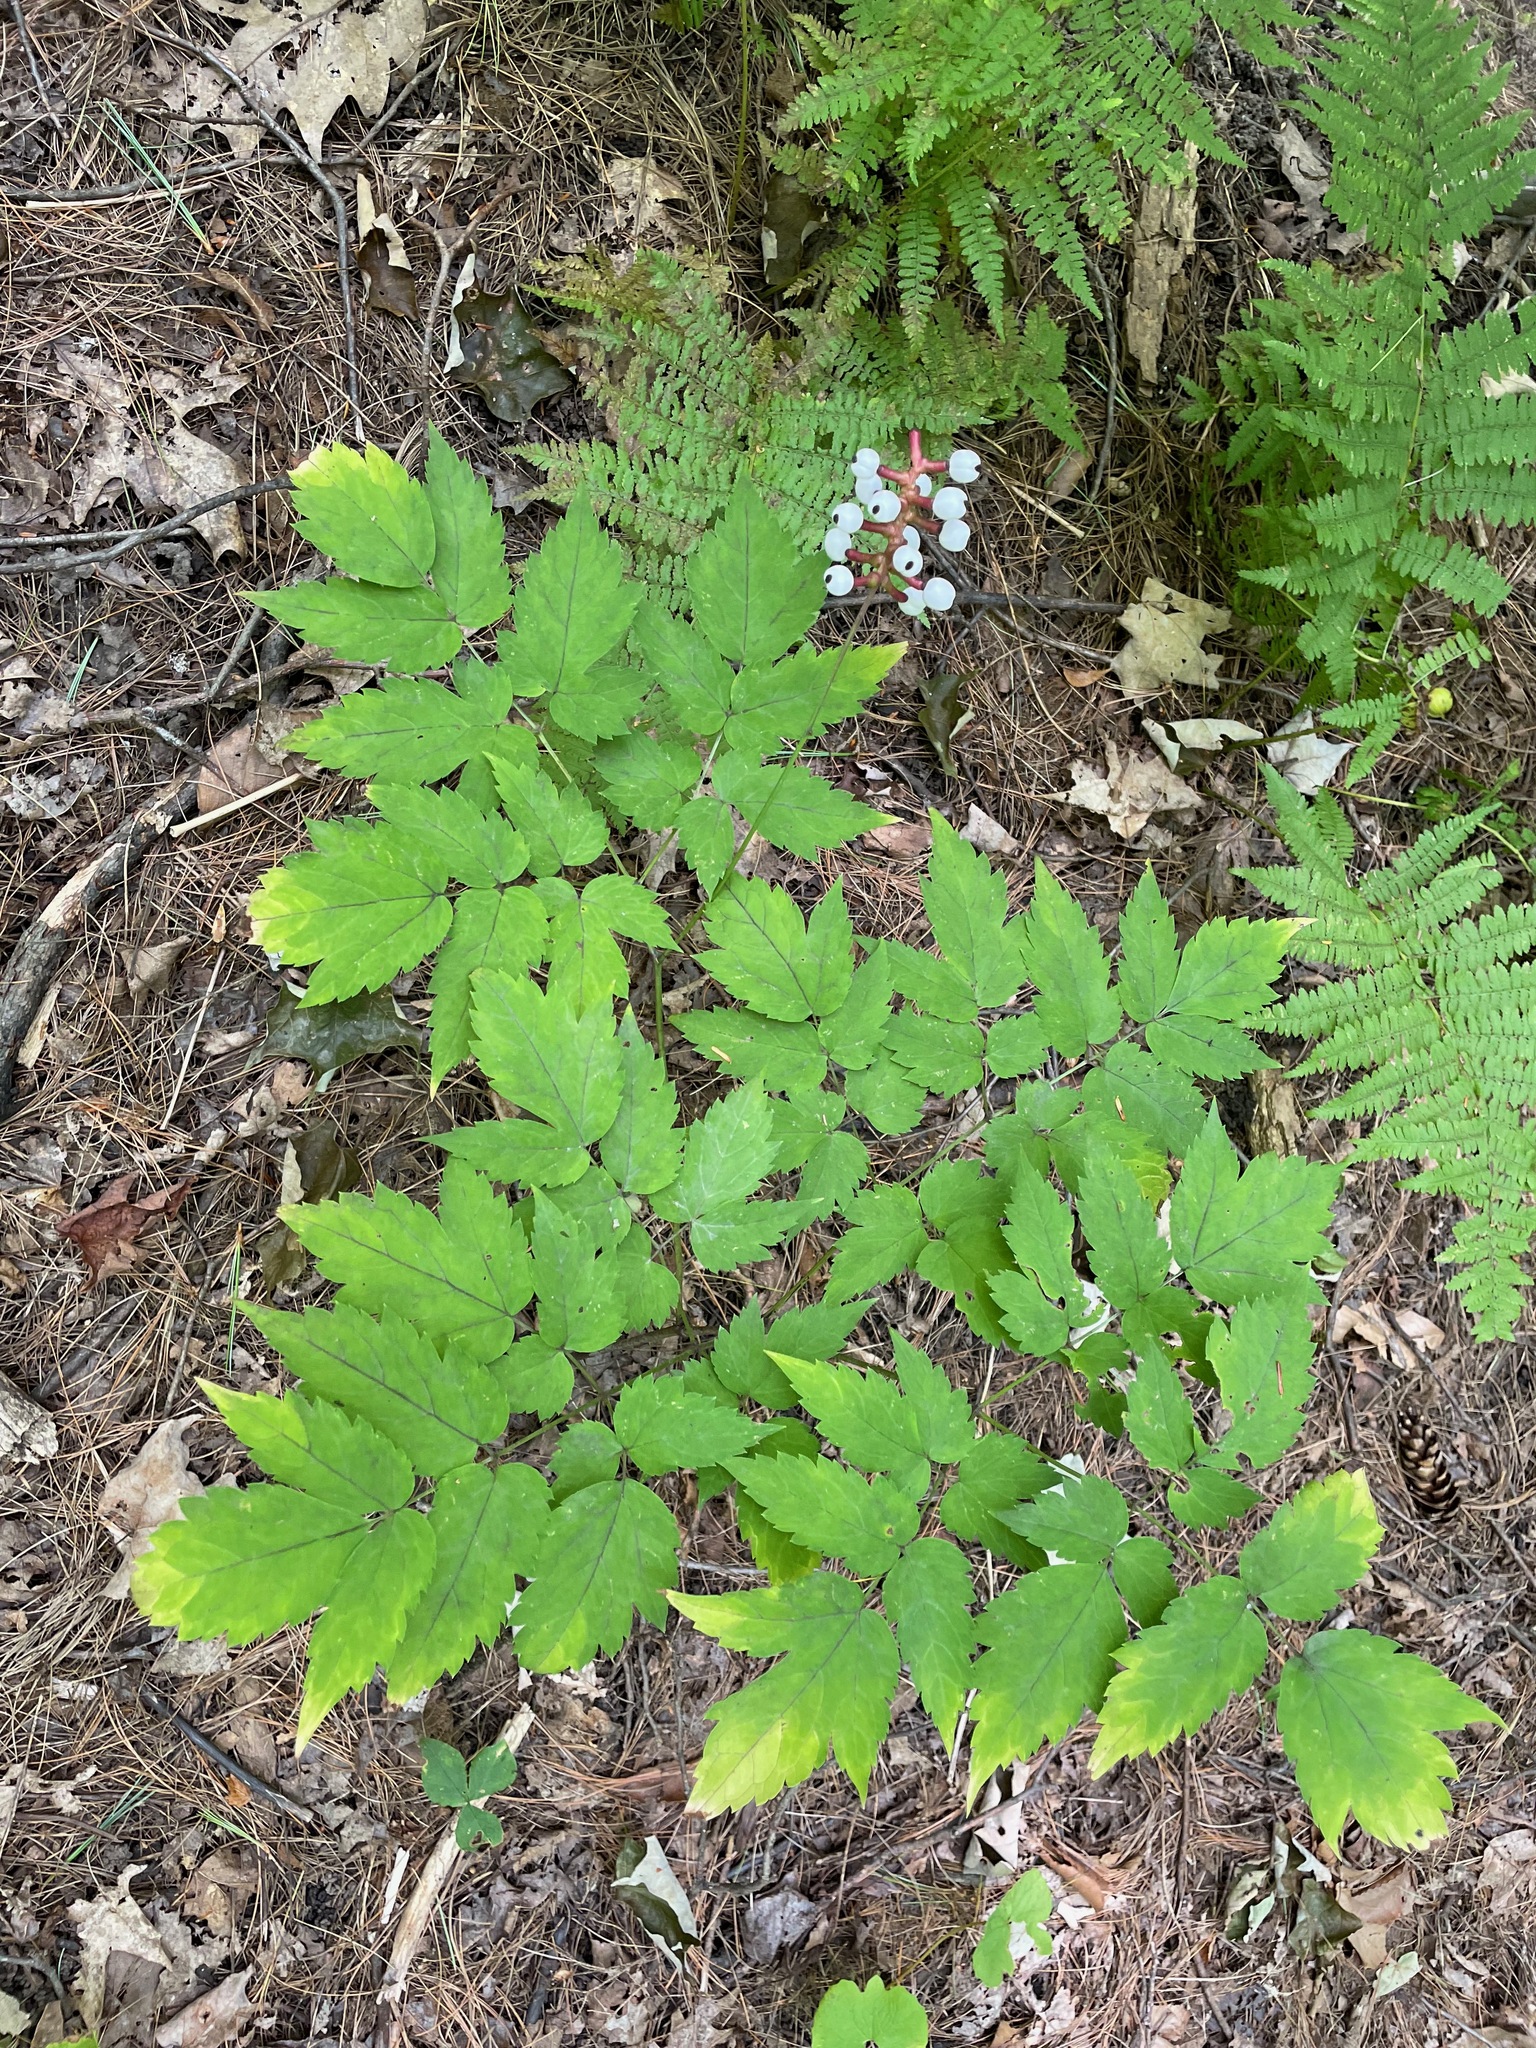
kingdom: Plantae
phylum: Tracheophyta
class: Magnoliopsida
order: Ranunculales
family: Ranunculaceae
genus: Actaea
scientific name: Actaea pachypoda
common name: Doll's-eyes
